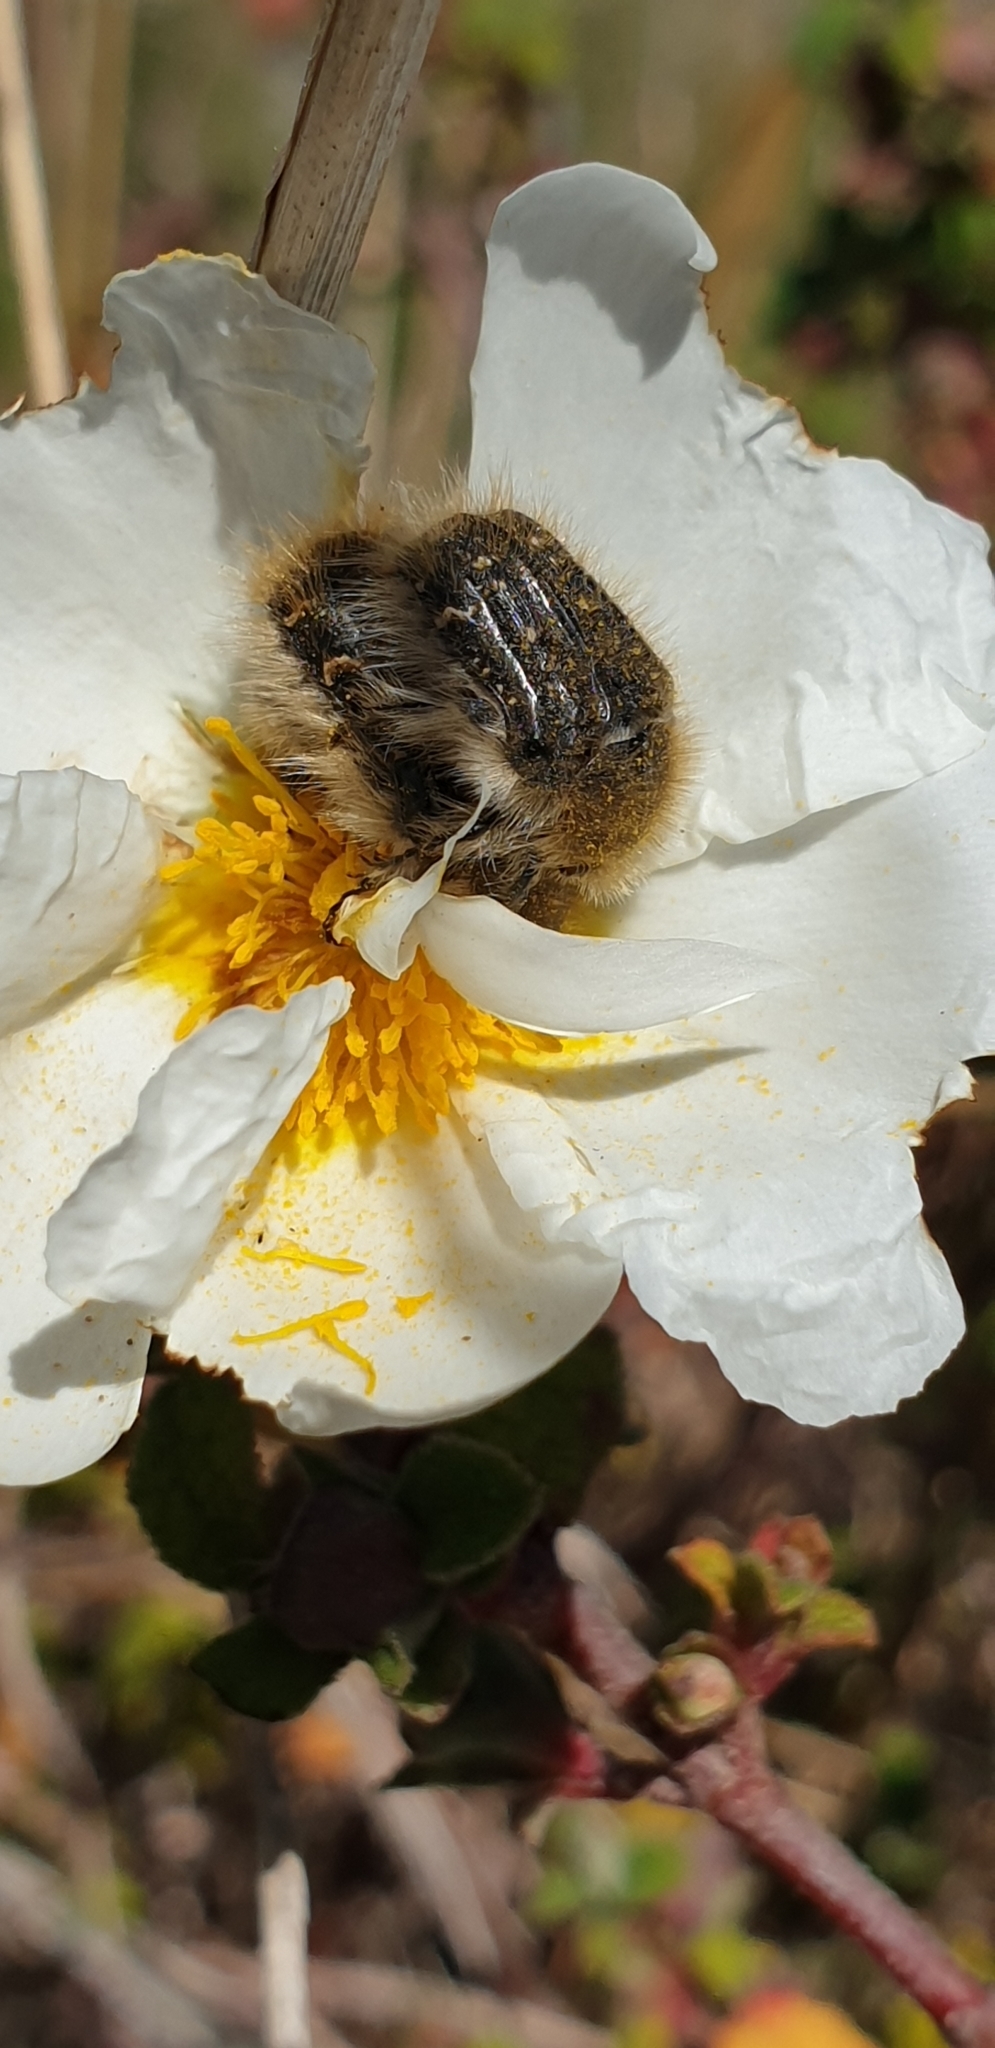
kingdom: Animalia
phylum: Arthropoda
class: Insecta
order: Coleoptera
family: Scarabaeidae
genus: Tropinota
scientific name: Tropinota squalida
